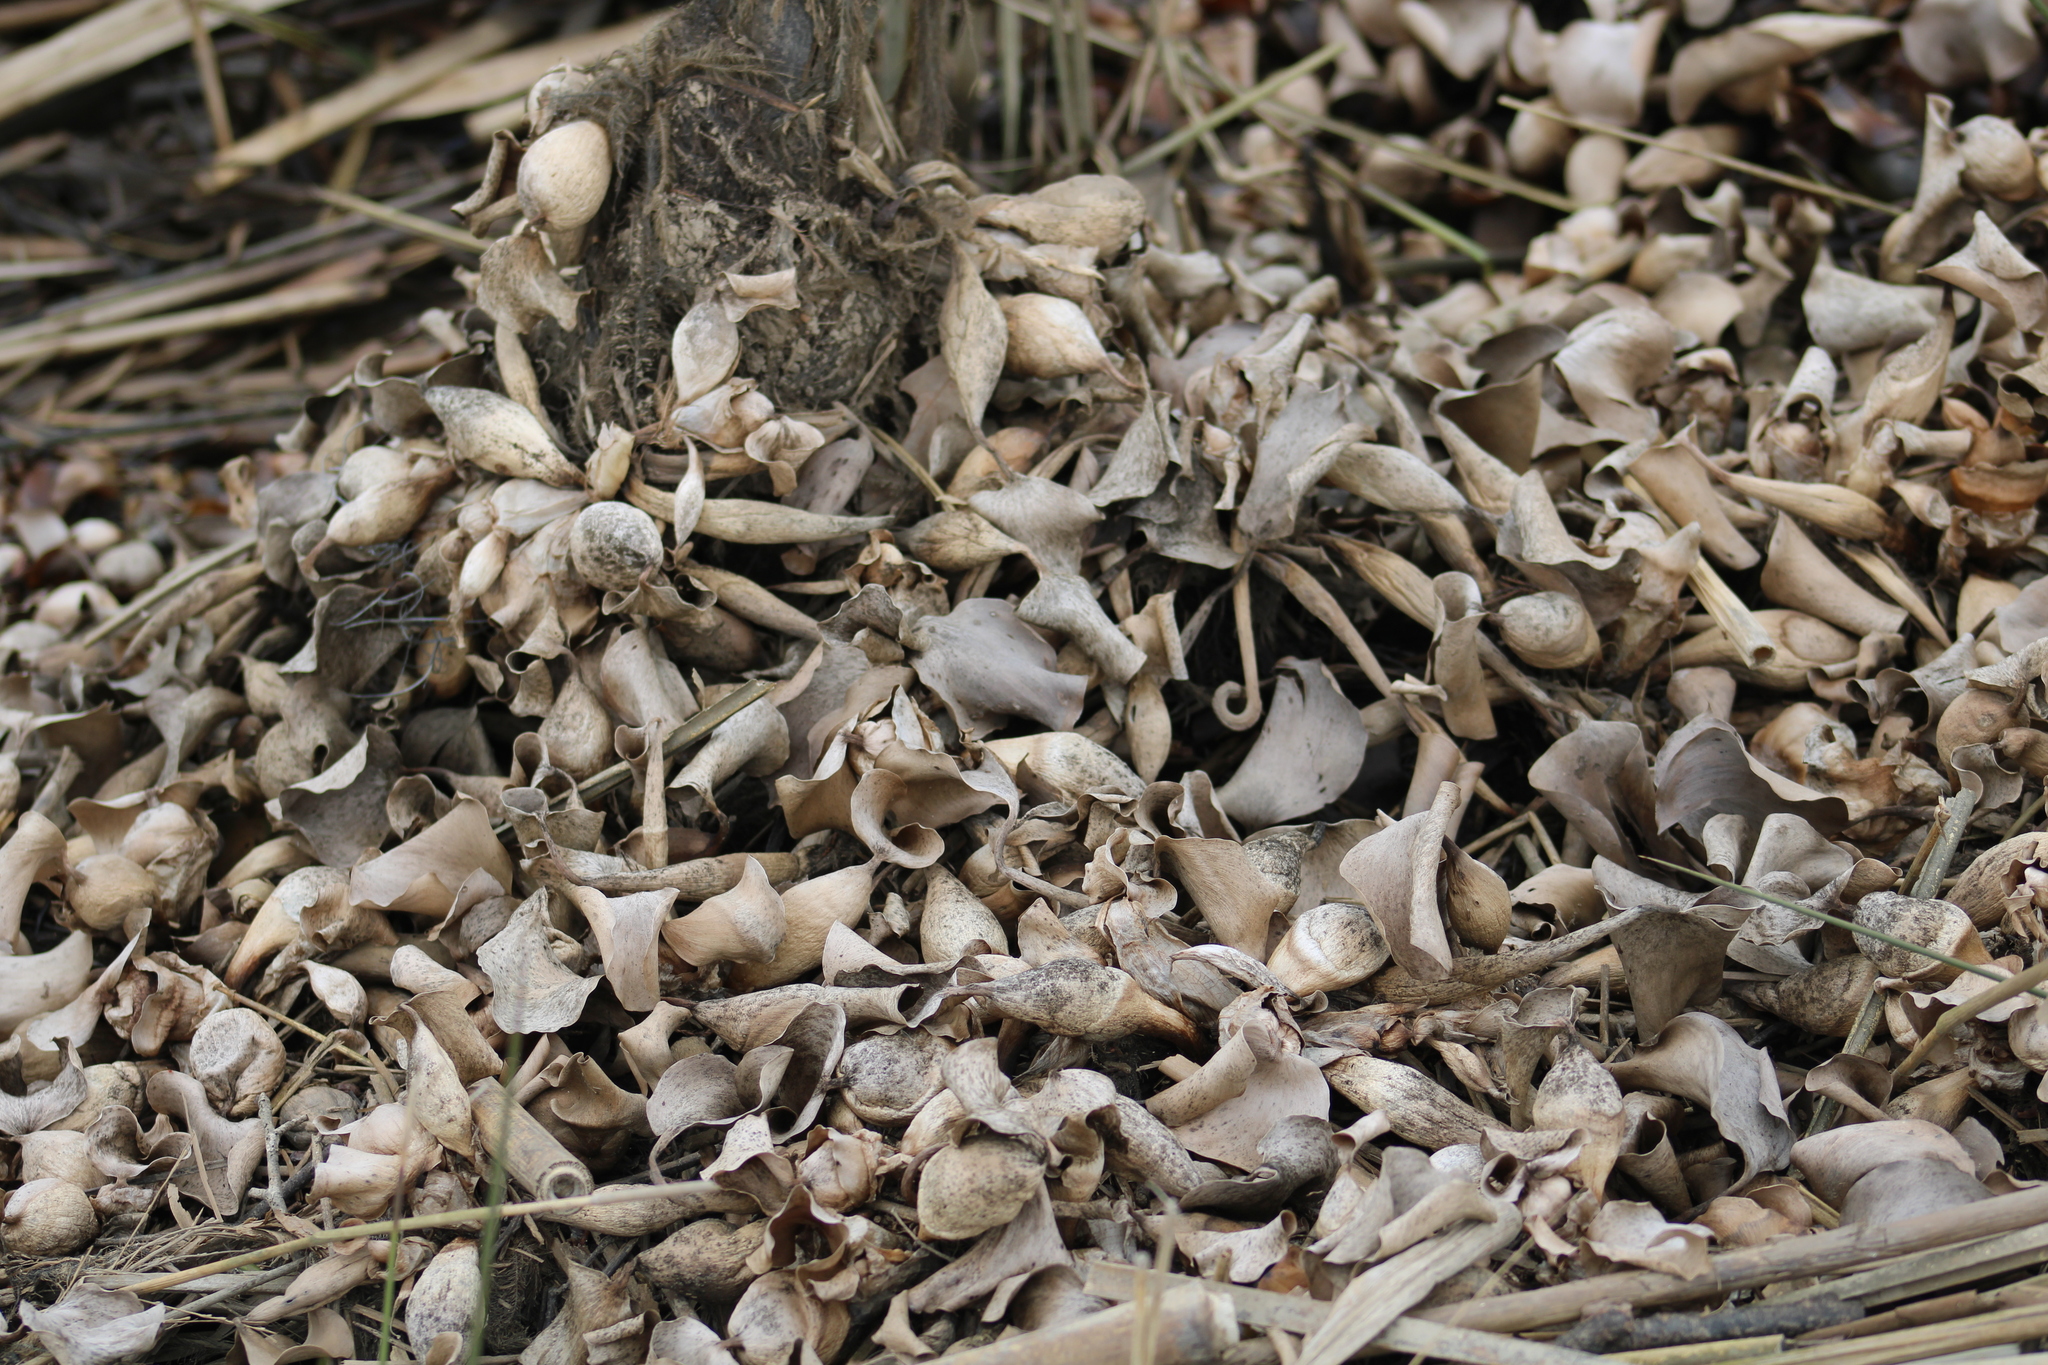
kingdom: Plantae
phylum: Tracheophyta
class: Liliopsida
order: Commelinales
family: Pontederiaceae
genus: Pontederia
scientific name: Pontederia crassipes
